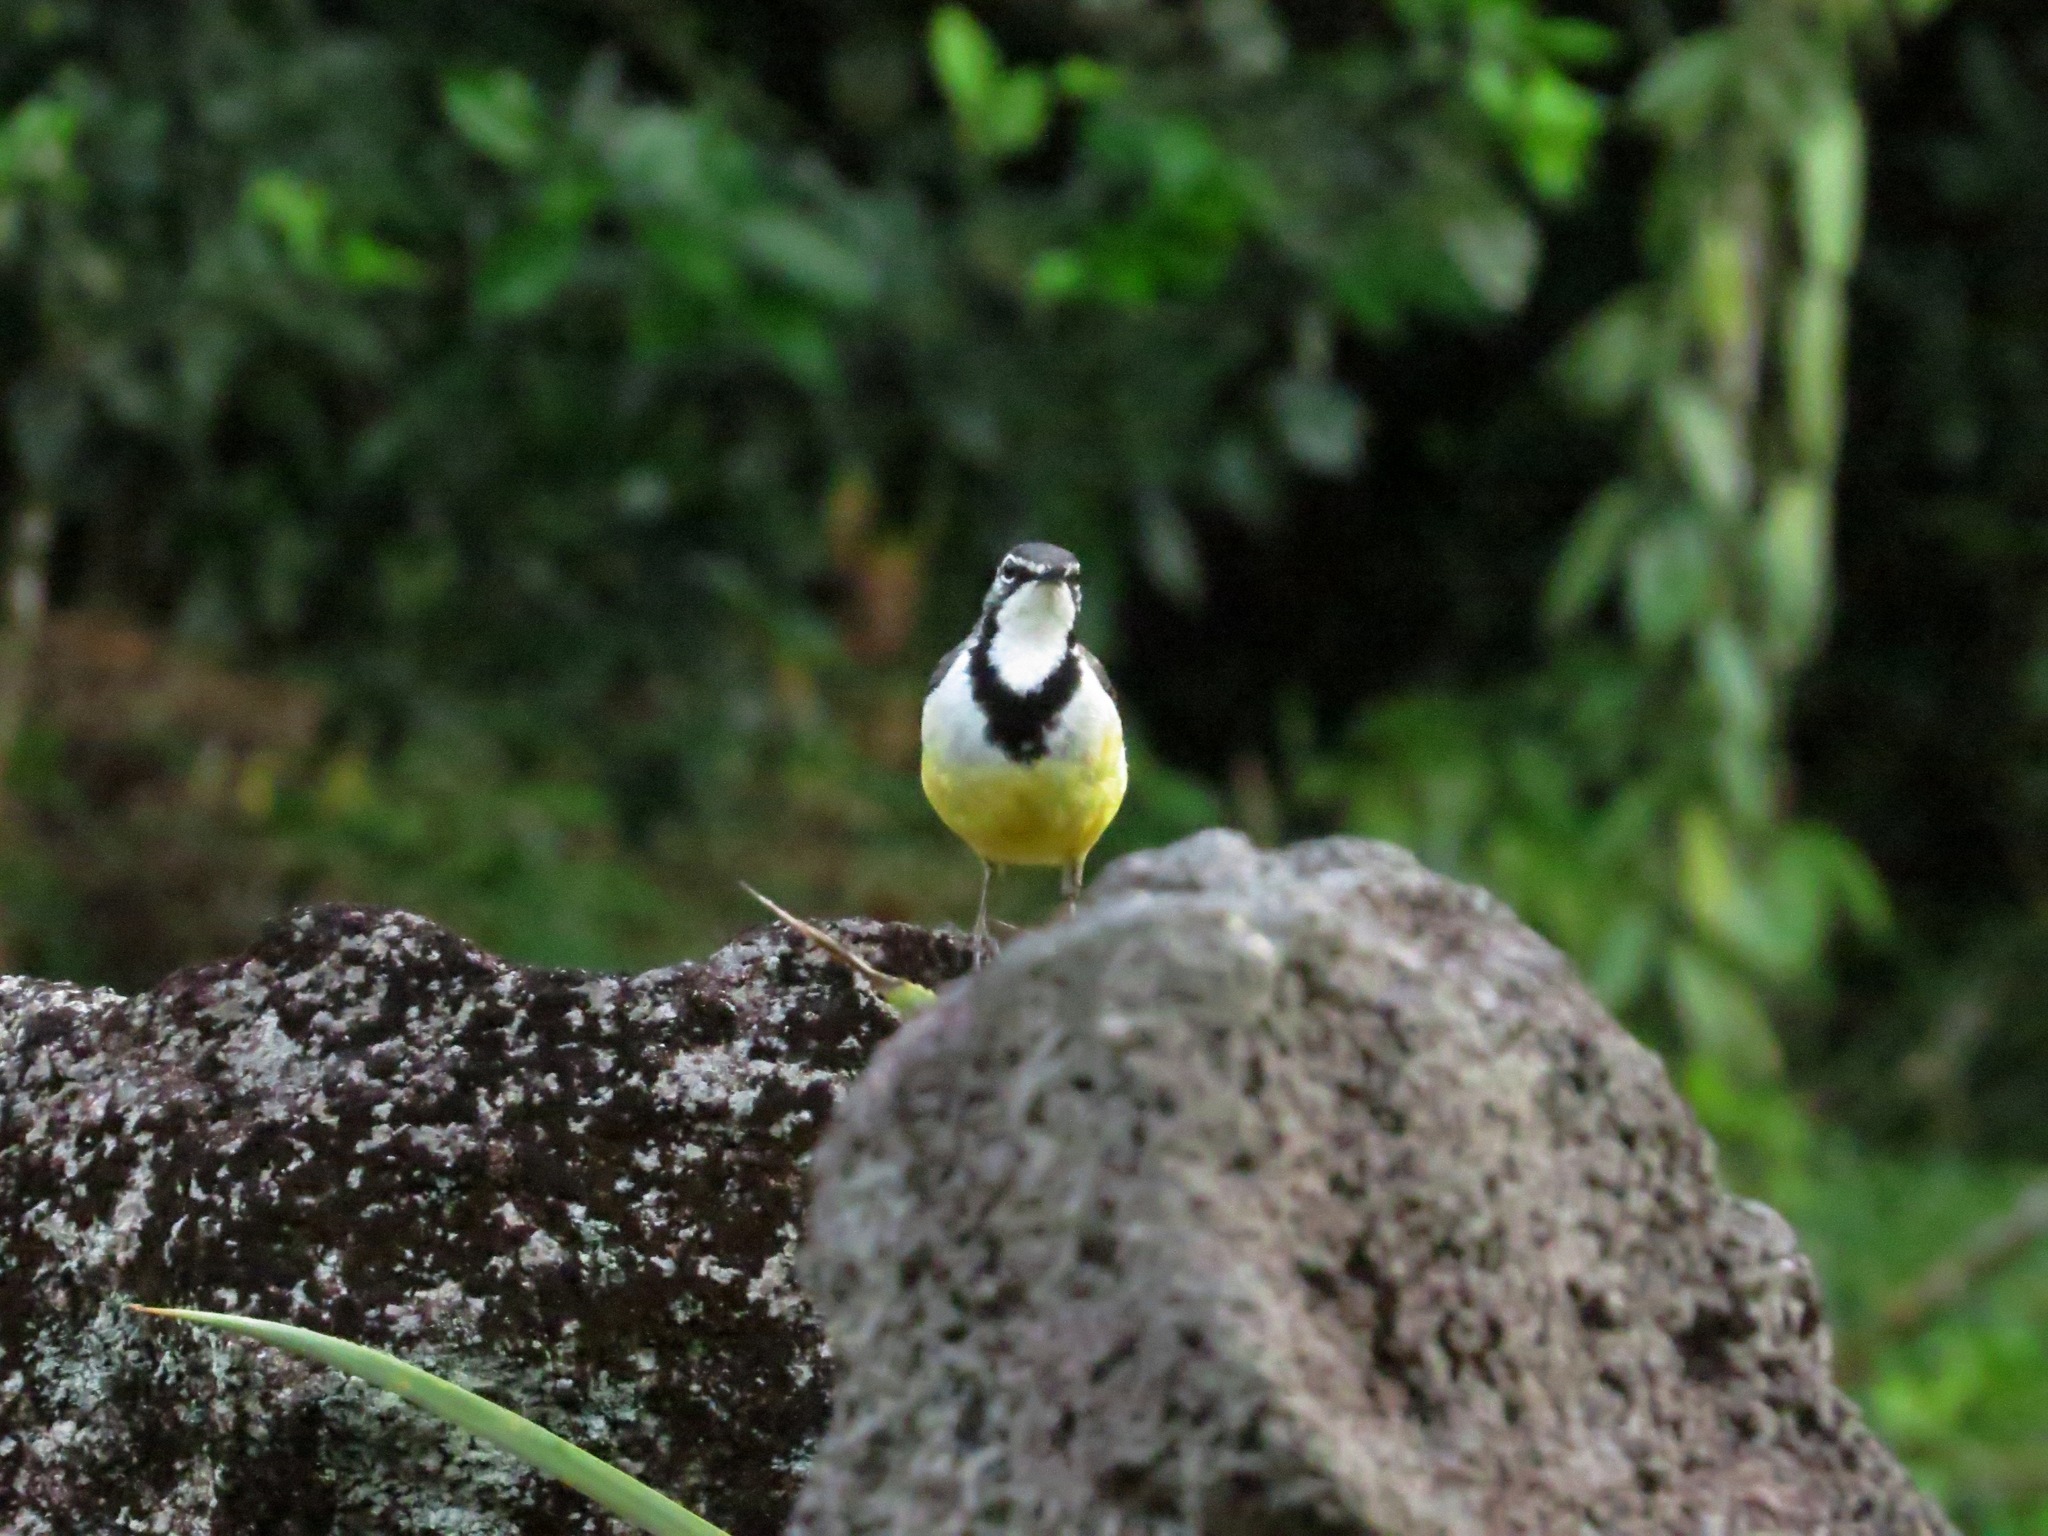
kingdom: Animalia
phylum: Chordata
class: Aves
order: Passeriformes
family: Motacillidae
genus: Motacilla
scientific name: Motacilla flaviventris
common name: Madagascar wagtail
